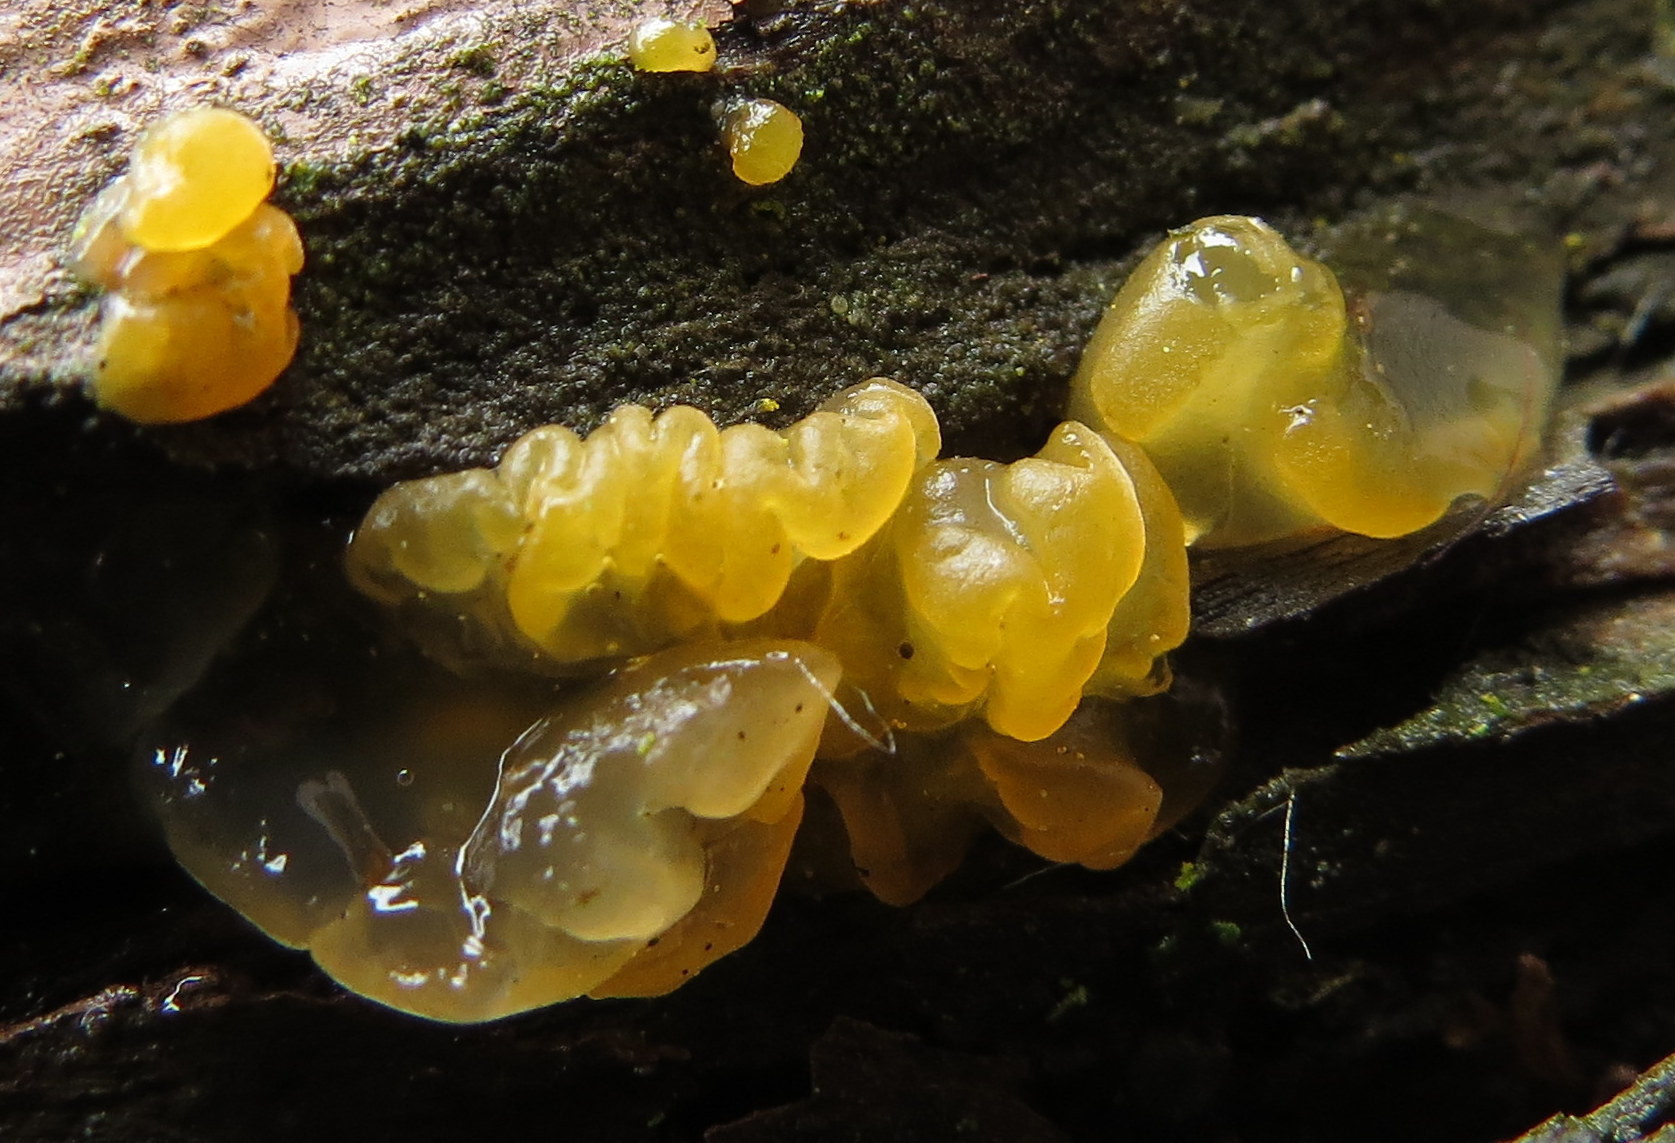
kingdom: Fungi
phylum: Basidiomycota
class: Tremellomycetes
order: Tremellales
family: Tremellaceae
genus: Tremella
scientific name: Tremella mesenterica
